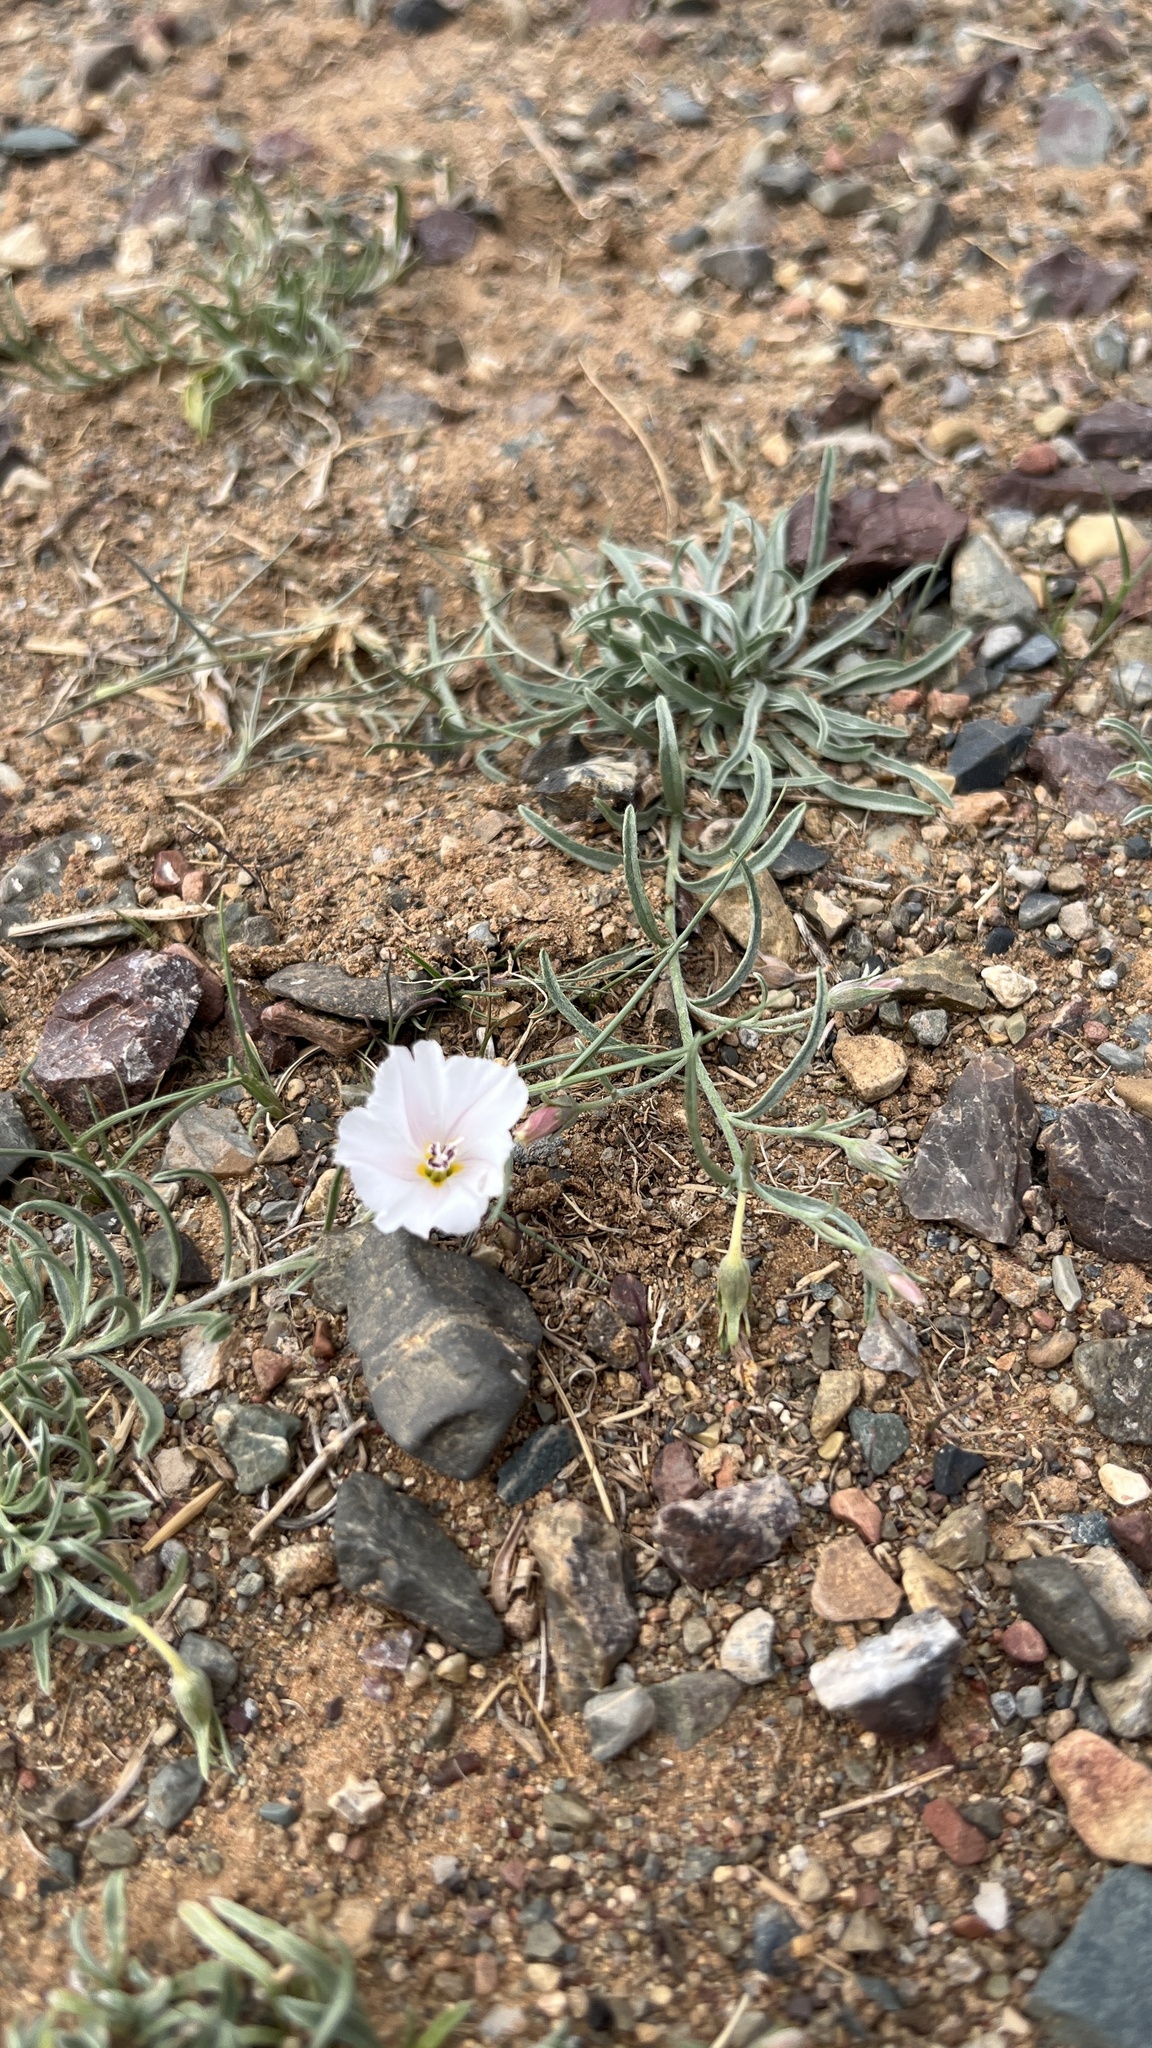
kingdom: Plantae
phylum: Tracheophyta
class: Magnoliopsida
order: Solanales
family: Convolvulaceae
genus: Convolvulus
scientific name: Convolvulus ammannii
